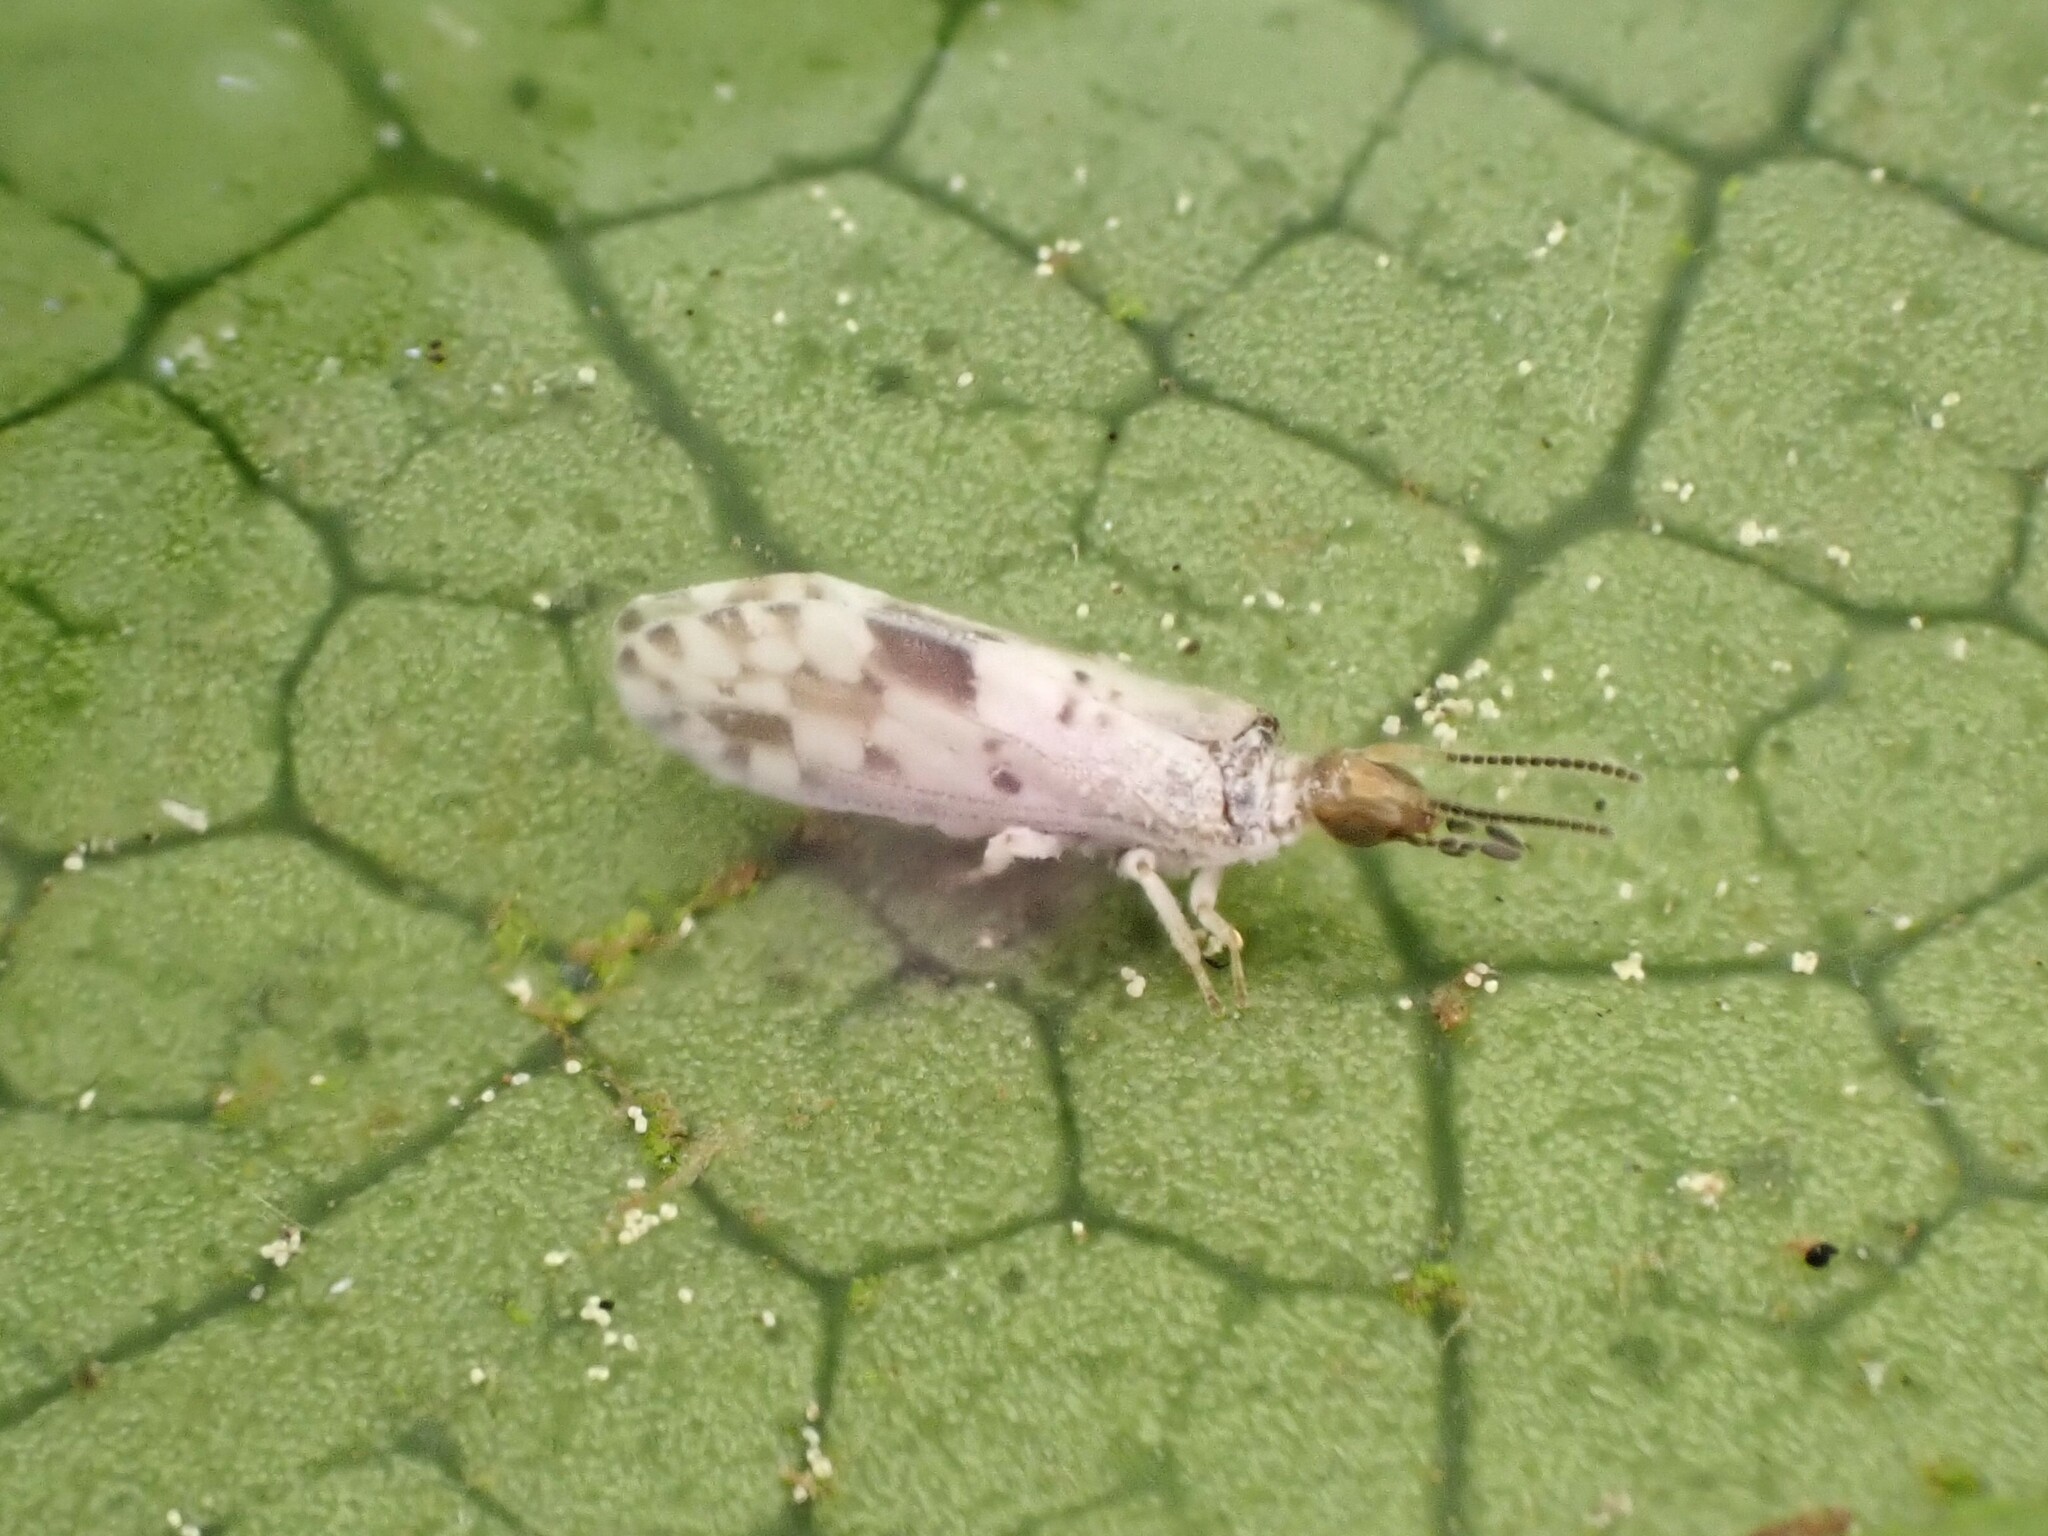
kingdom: Animalia
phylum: Arthropoda
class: Insecta
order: Neuroptera
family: Coniopterygidae
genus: Heteroconis
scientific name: Heteroconis ornata
